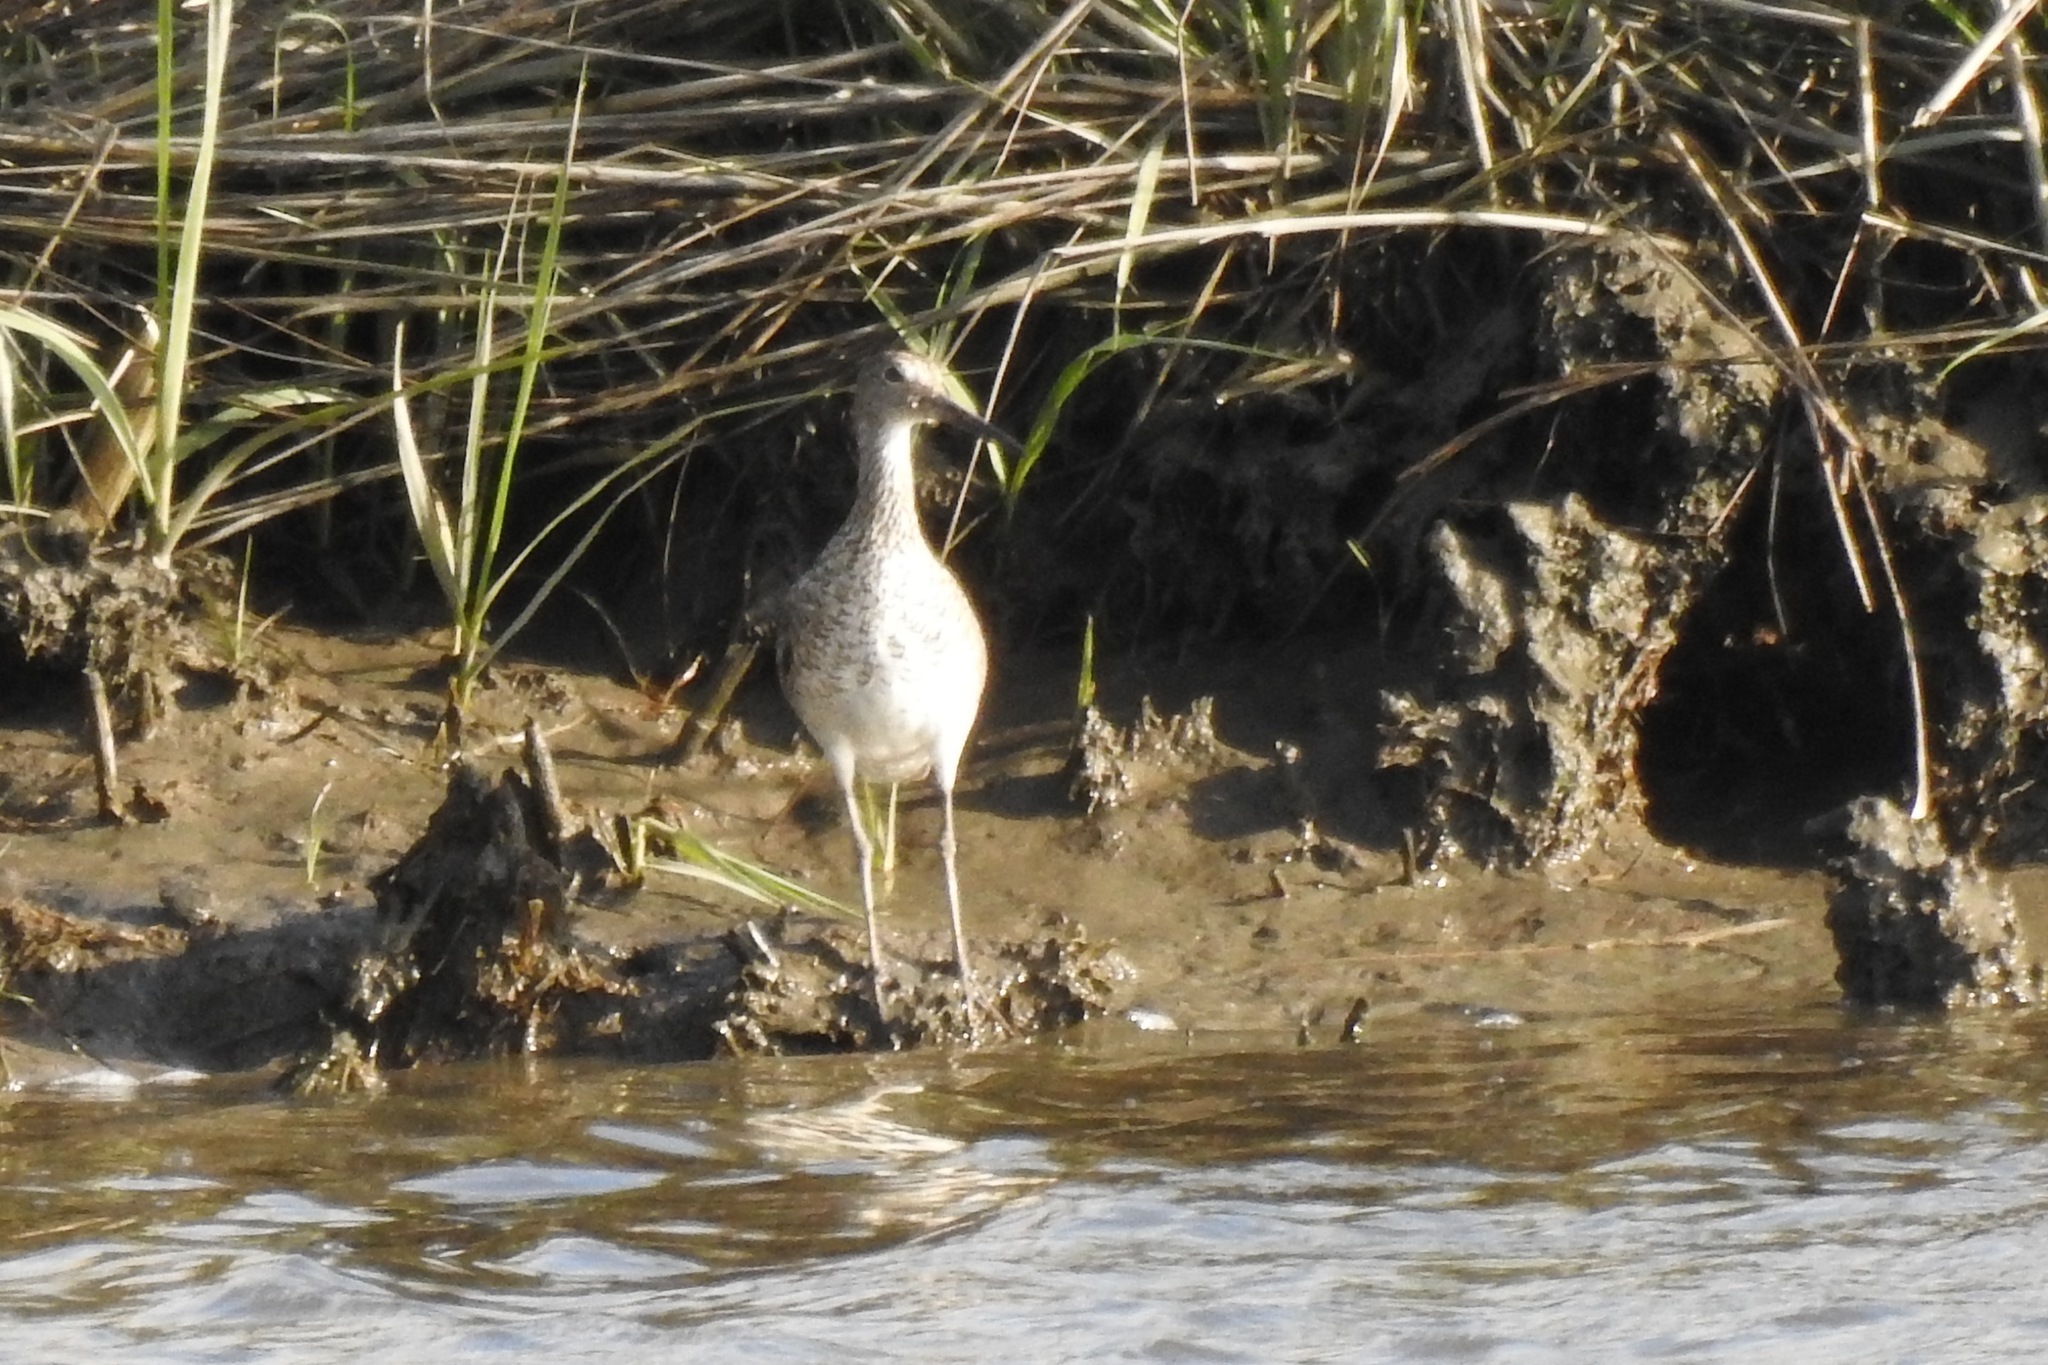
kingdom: Animalia
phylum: Chordata
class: Aves
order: Charadriiformes
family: Scolopacidae
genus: Tringa
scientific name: Tringa semipalmata
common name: Willet
